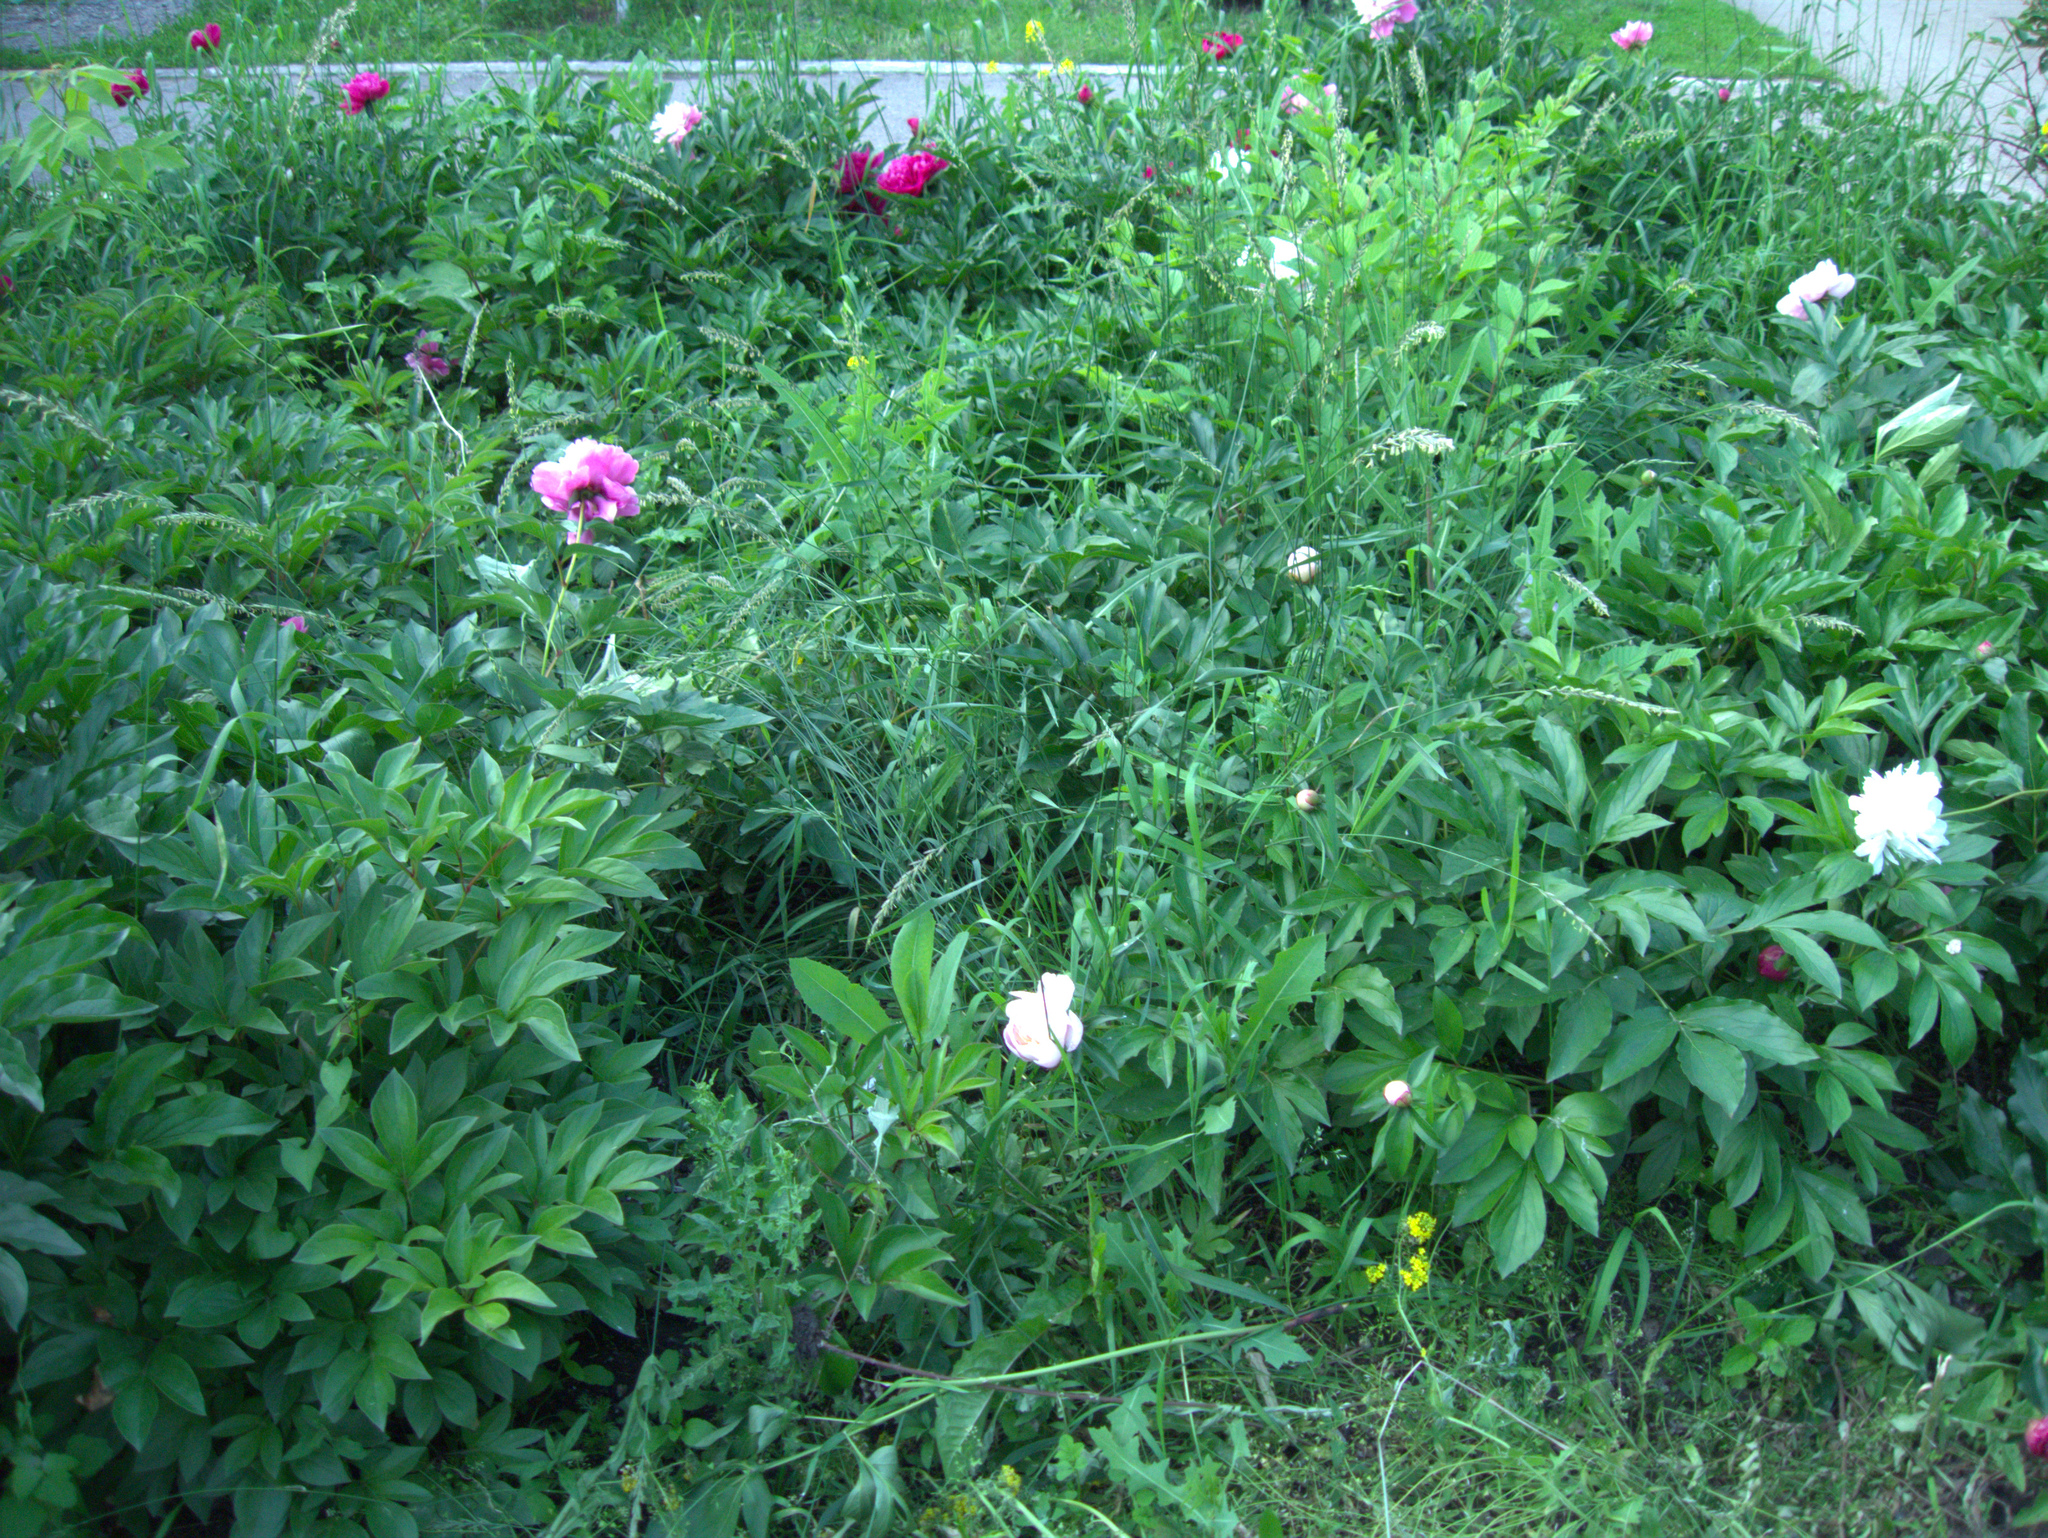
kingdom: Plantae
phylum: Tracheophyta
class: Magnoliopsida
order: Asterales
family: Asteraceae
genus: Lactuca
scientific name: Lactuca serriola
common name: Prickly lettuce
